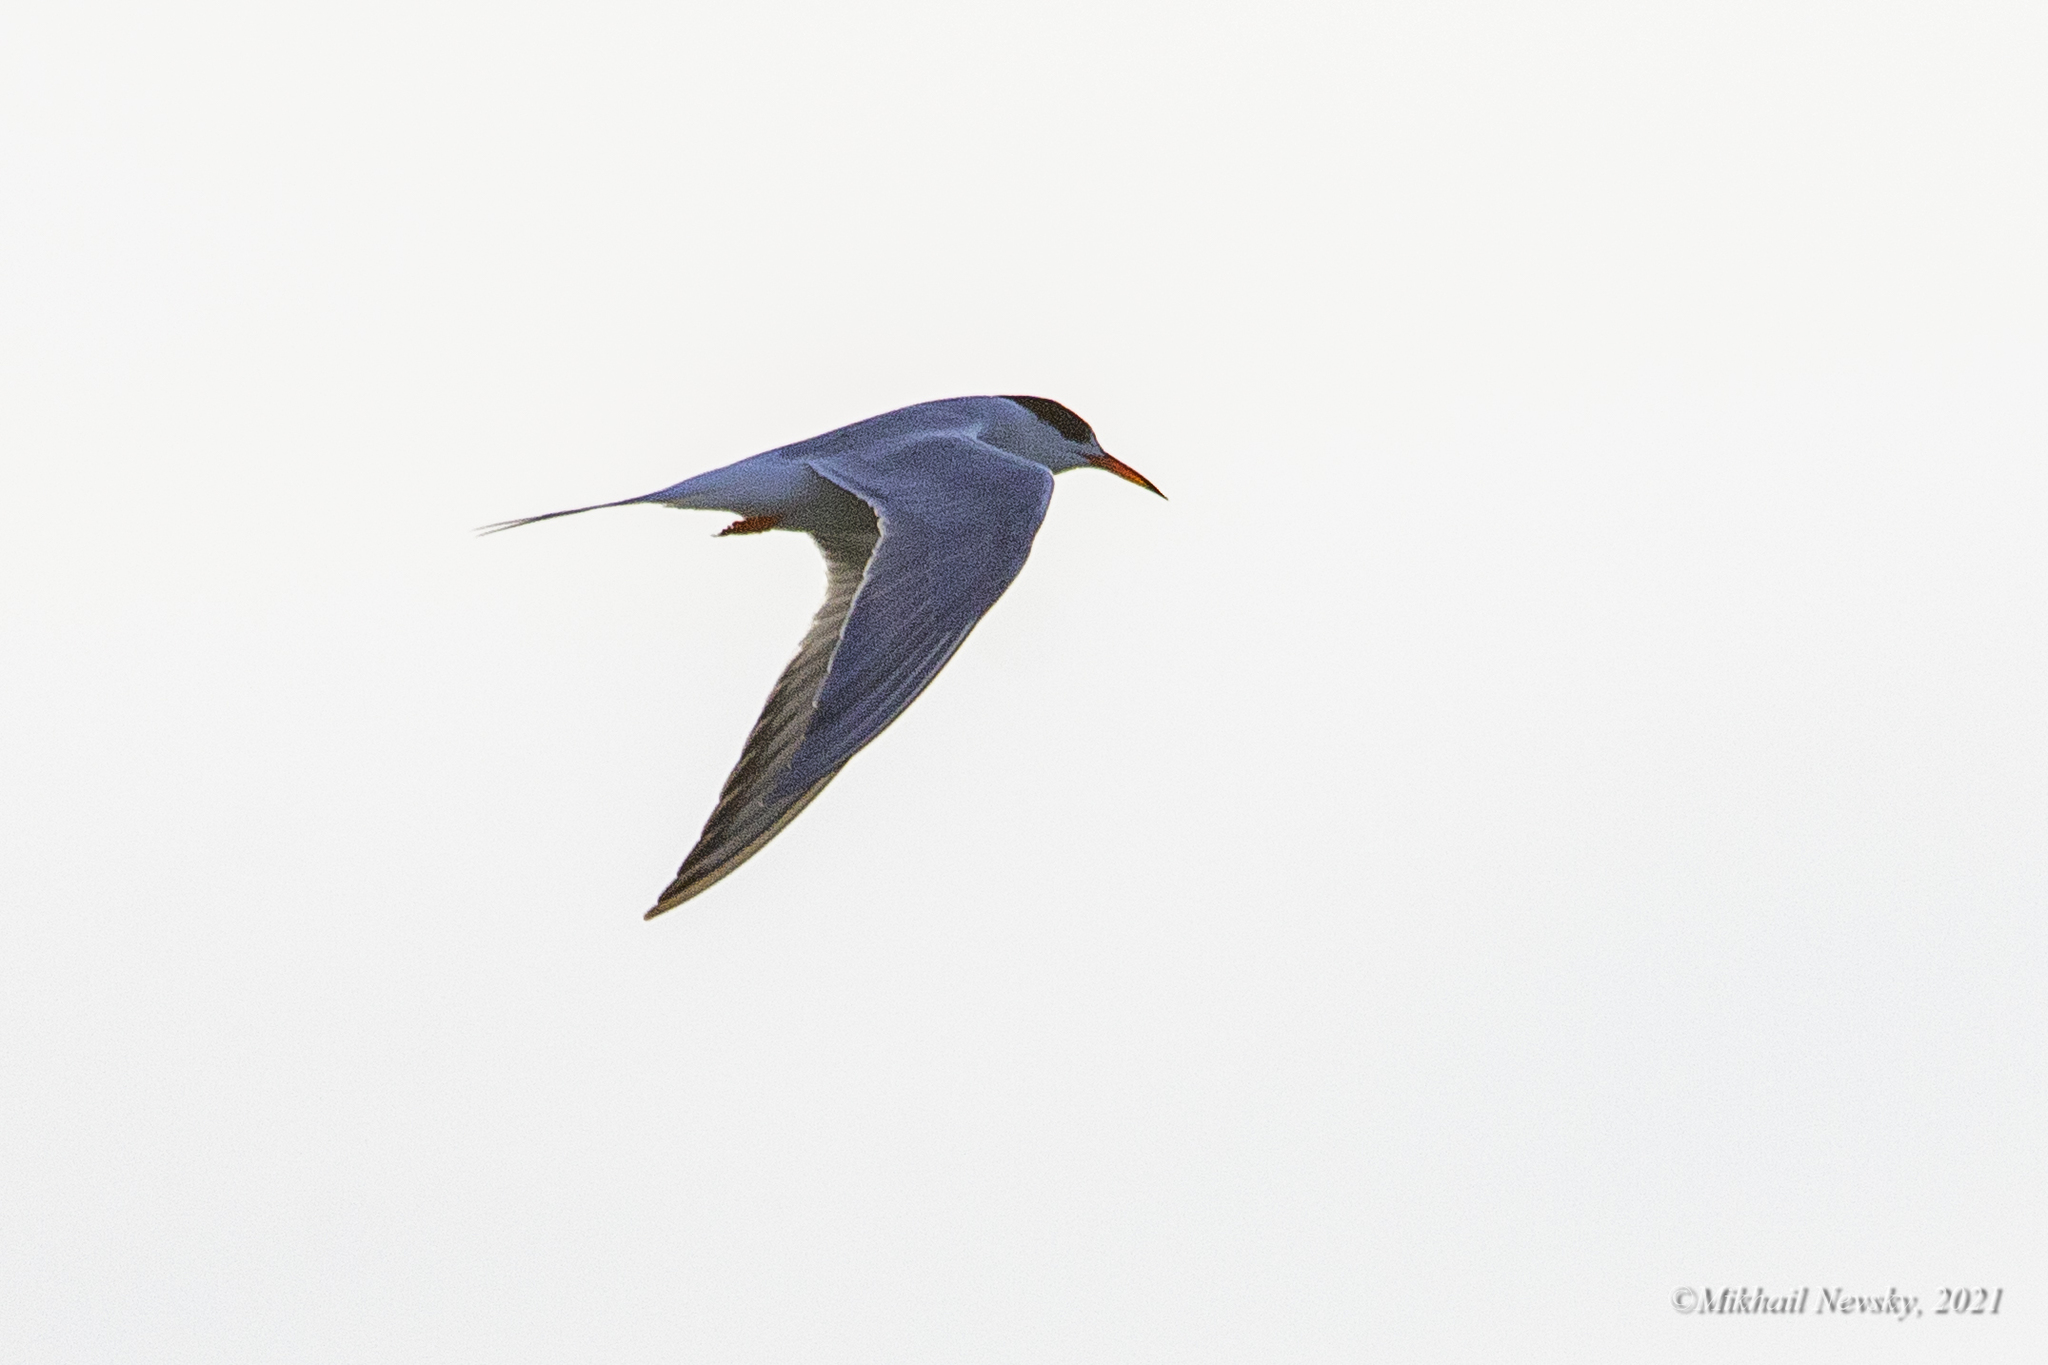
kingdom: Animalia
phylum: Chordata
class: Aves
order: Charadriiformes
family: Laridae
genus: Sterna
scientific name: Sterna hirundo
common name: Common tern
